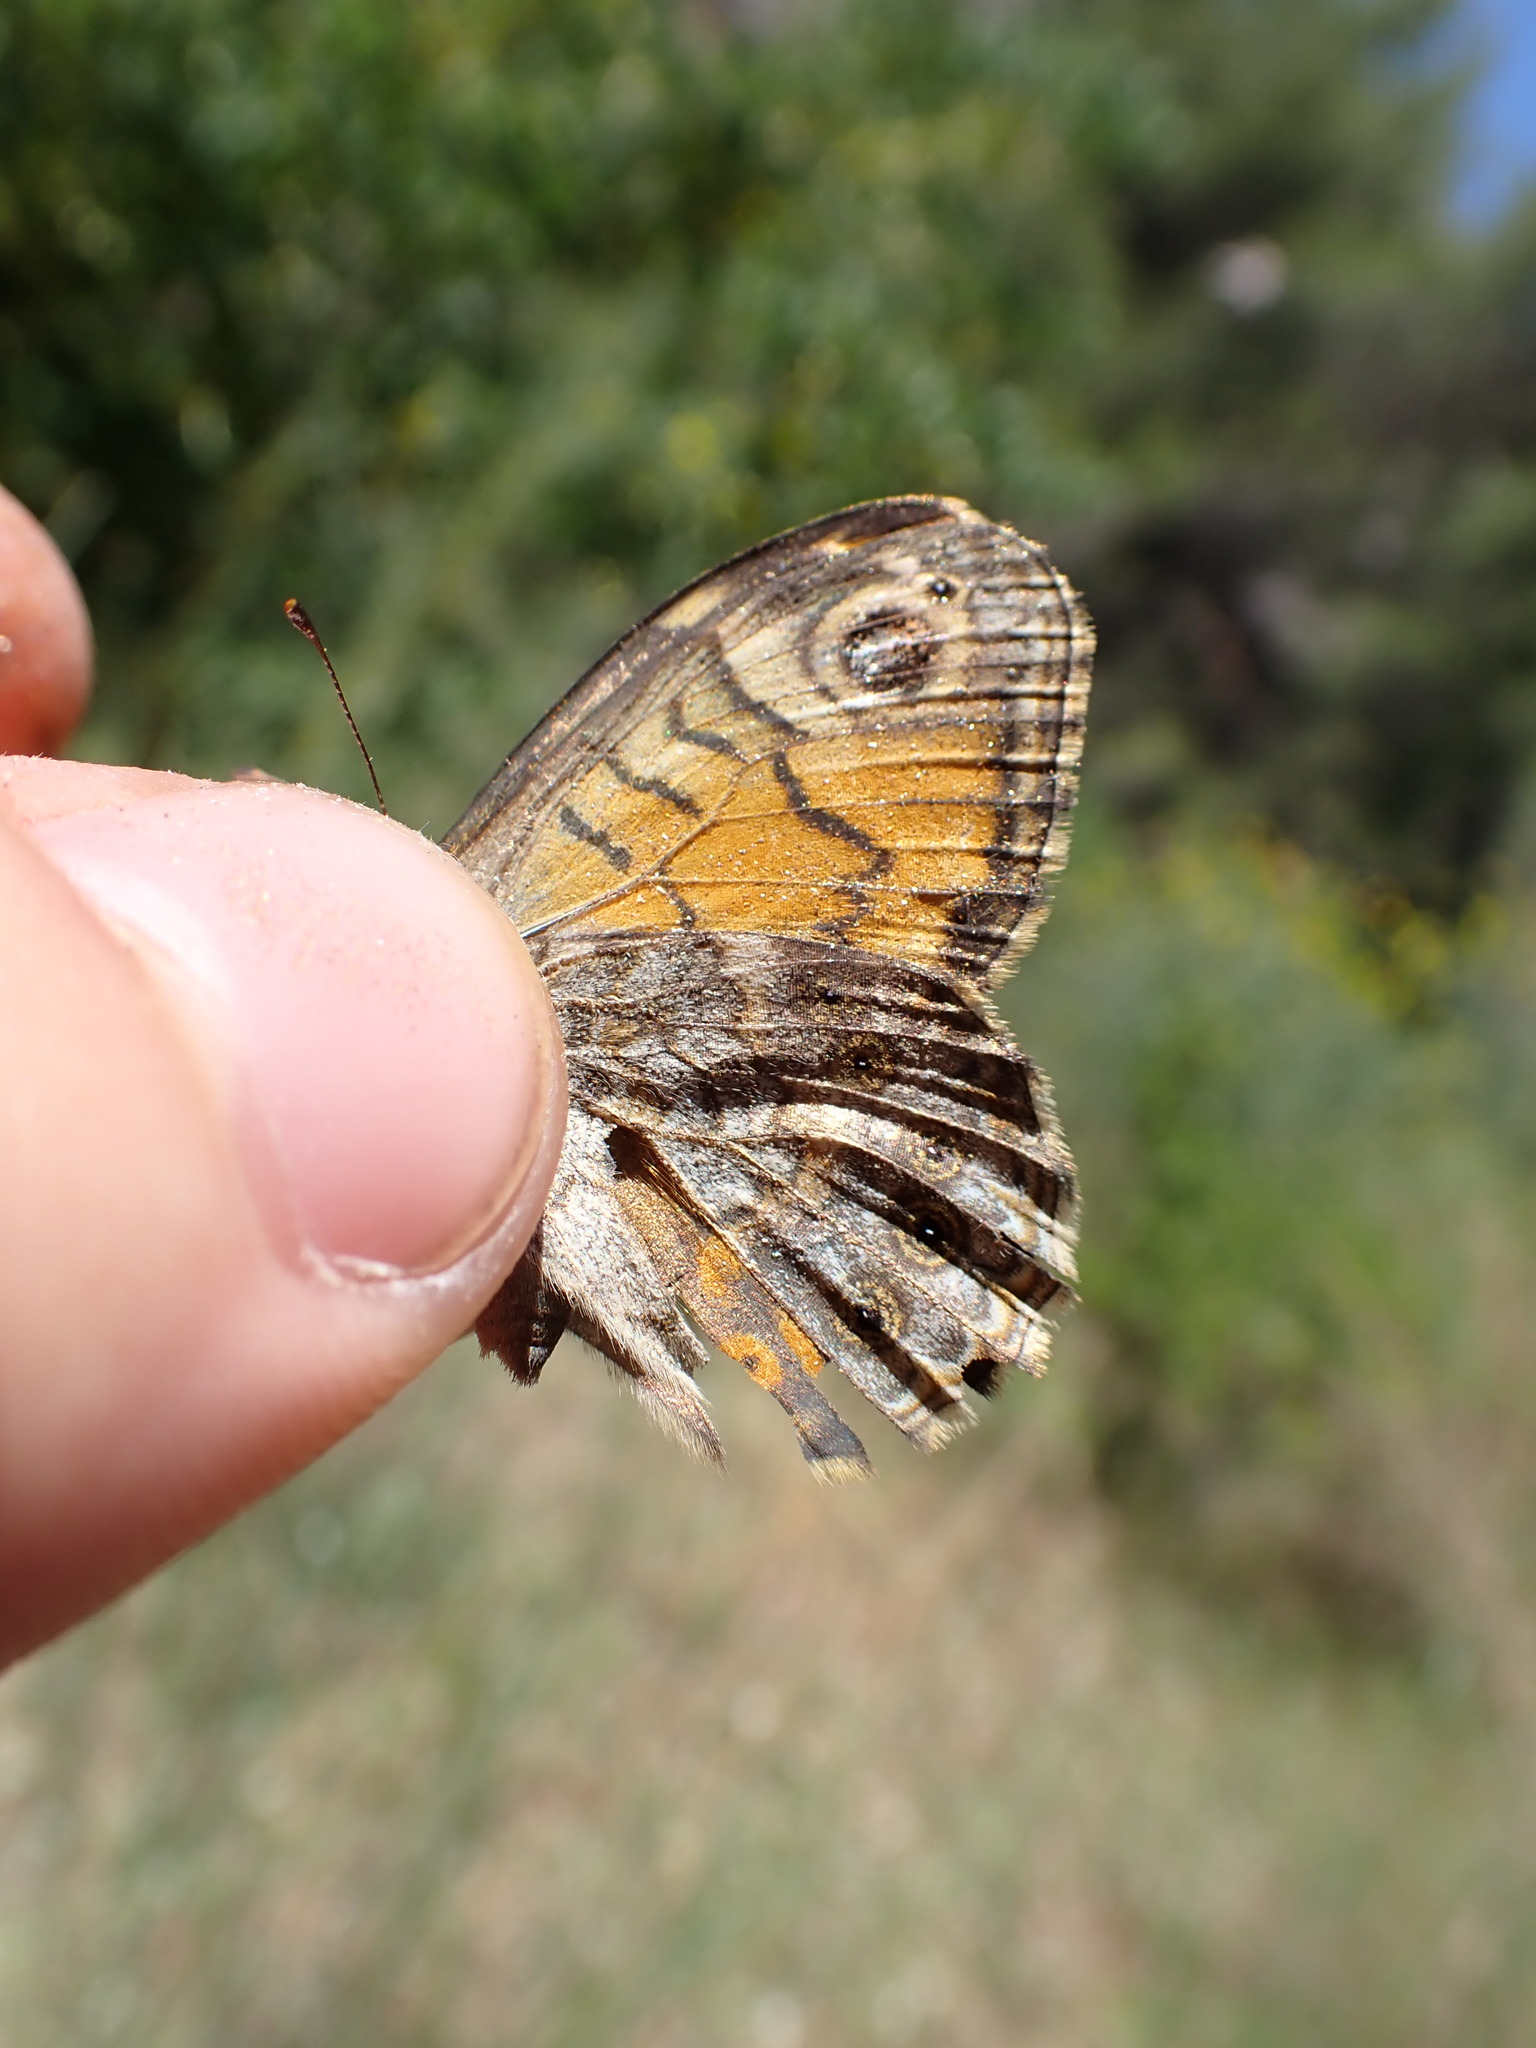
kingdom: Animalia
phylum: Arthropoda
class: Insecta
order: Lepidoptera
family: Nymphalidae
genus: Pararge
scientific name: Pararge Lasiommata megera
